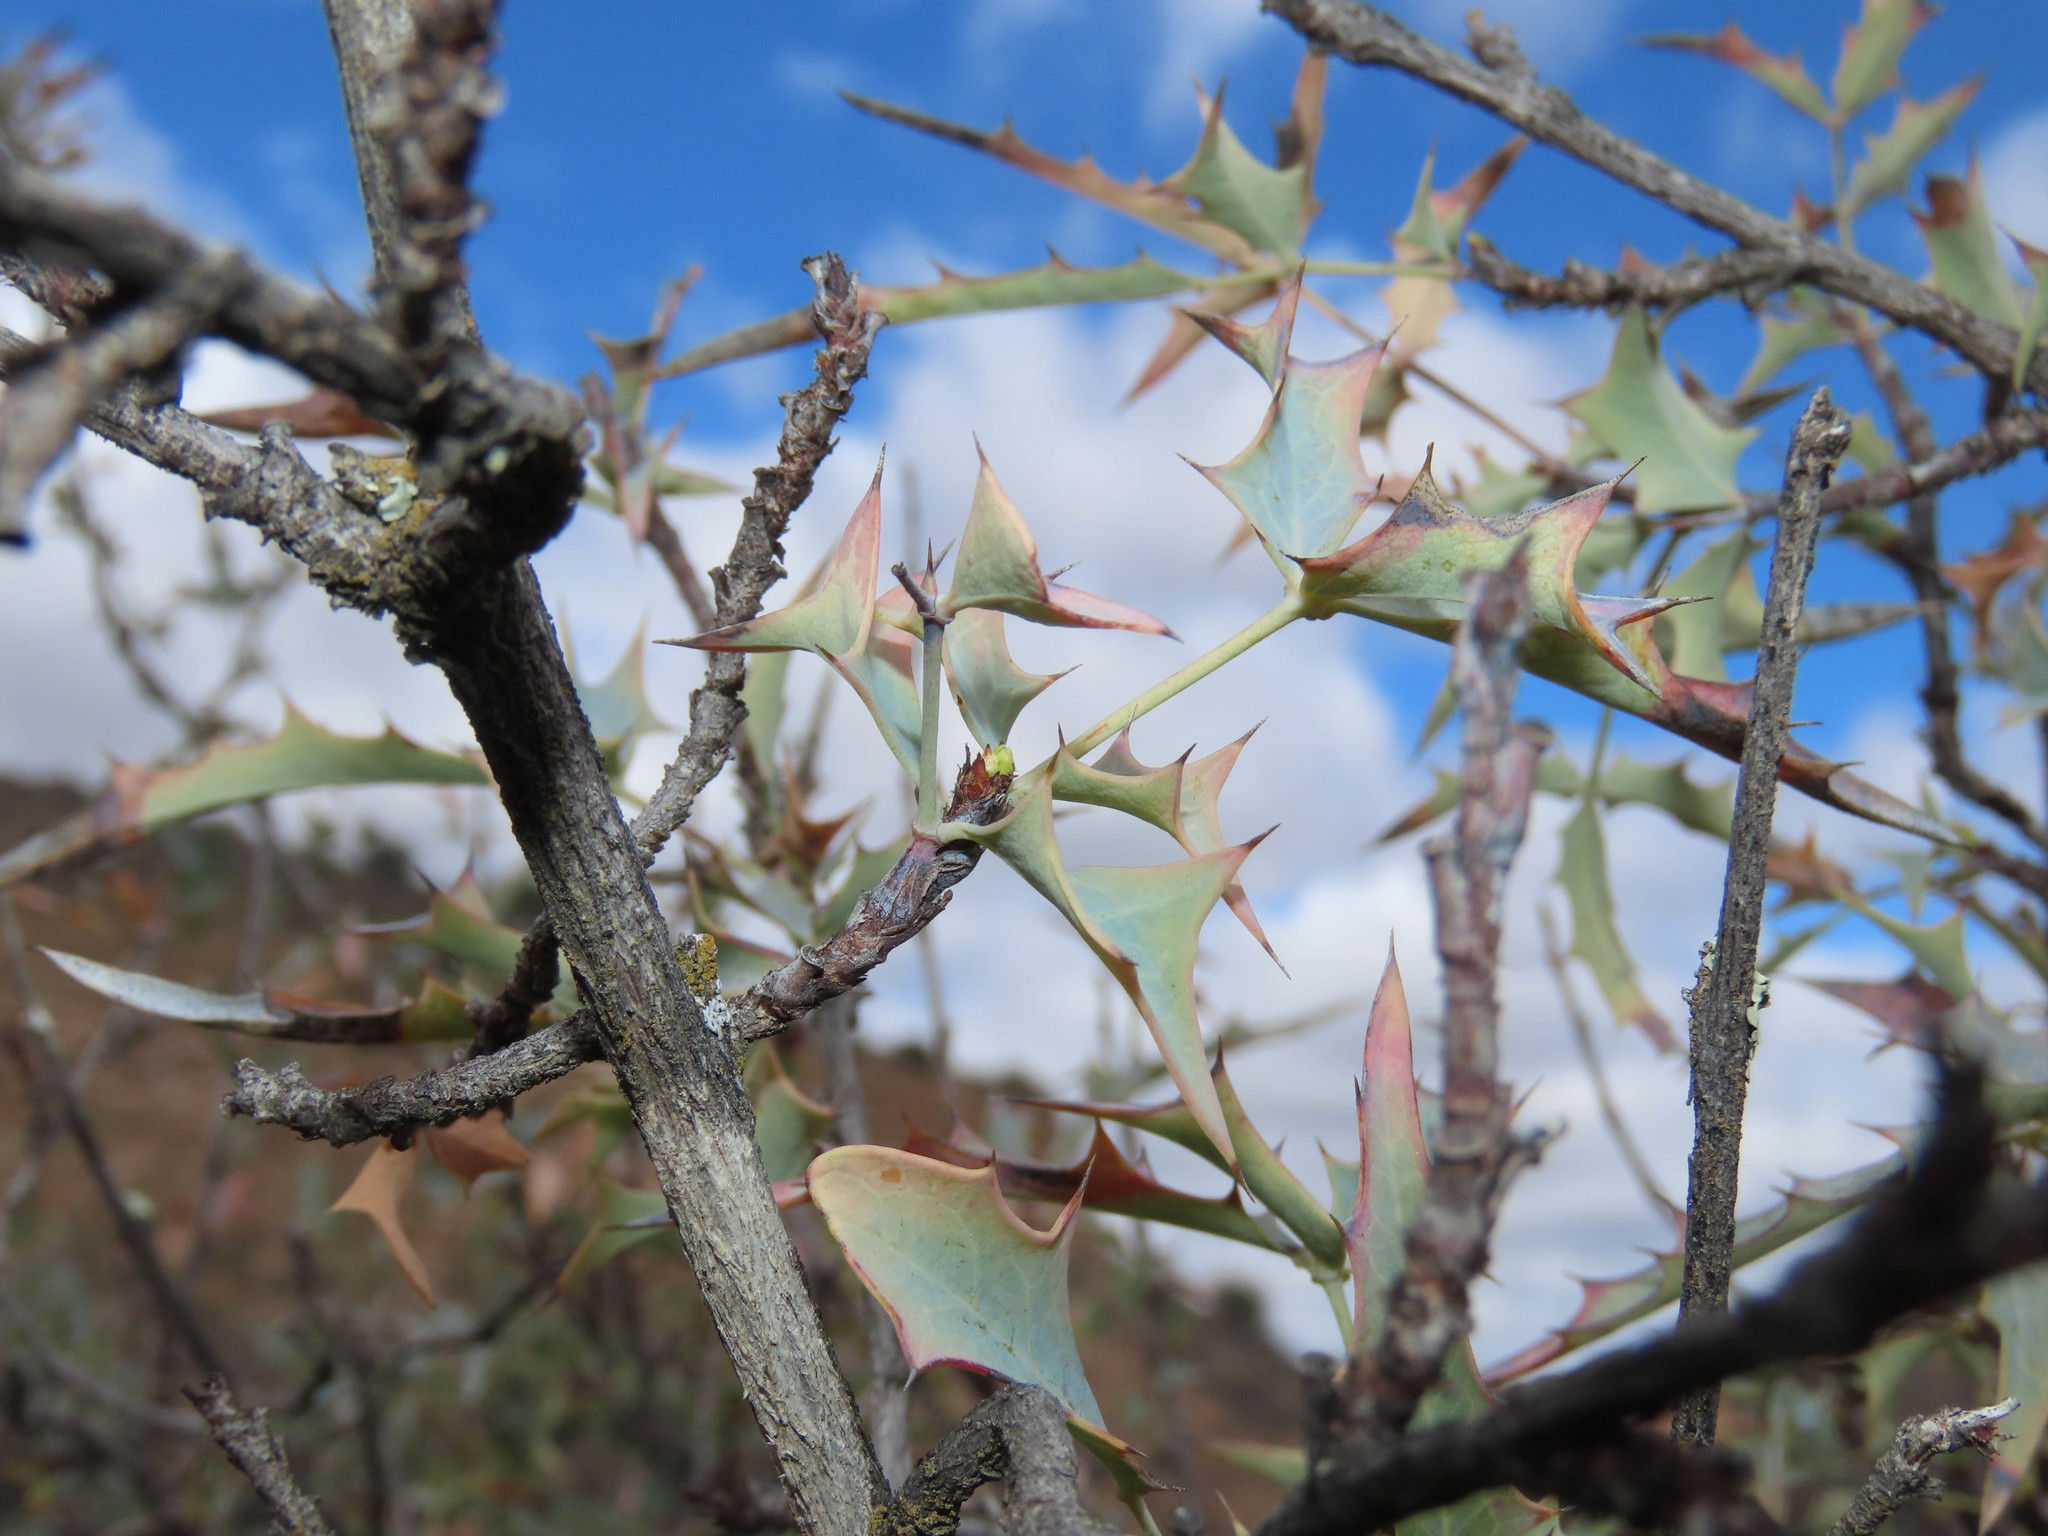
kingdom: Plantae
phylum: Tracheophyta
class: Magnoliopsida
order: Ranunculales
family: Berberidaceae
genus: Alloberberis
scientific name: Alloberberis haematocarpa
